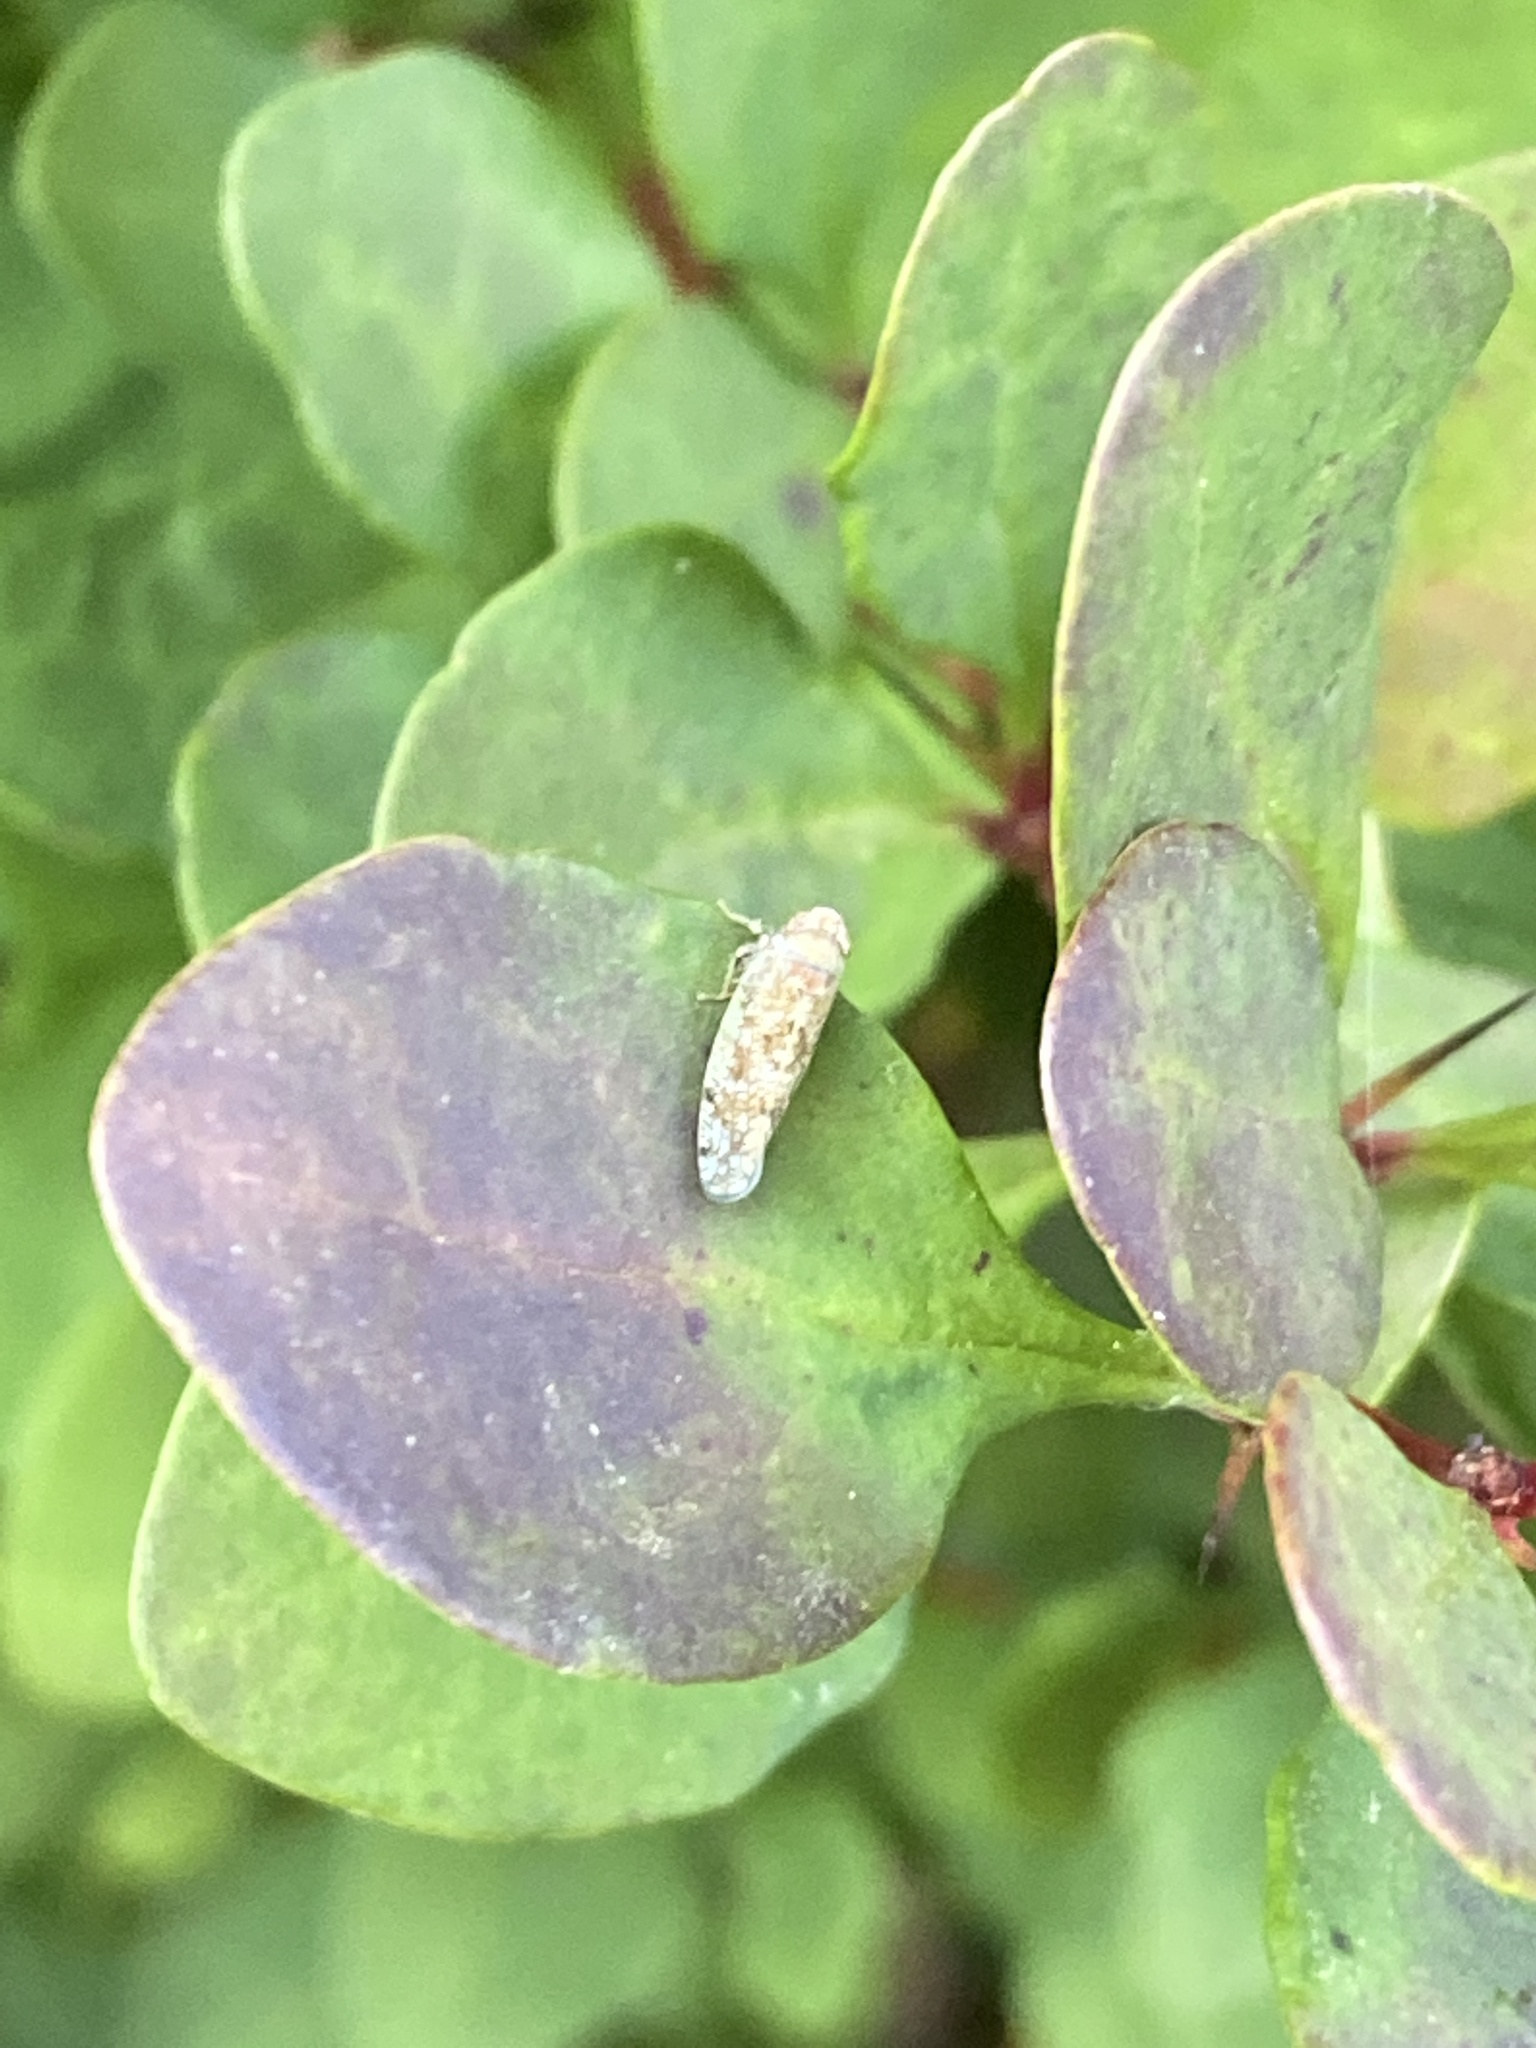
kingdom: Animalia
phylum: Arthropoda
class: Insecta
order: Hemiptera
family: Cicadellidae
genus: Orientus
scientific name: Orientus ishidae
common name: Japanese leafhopper
